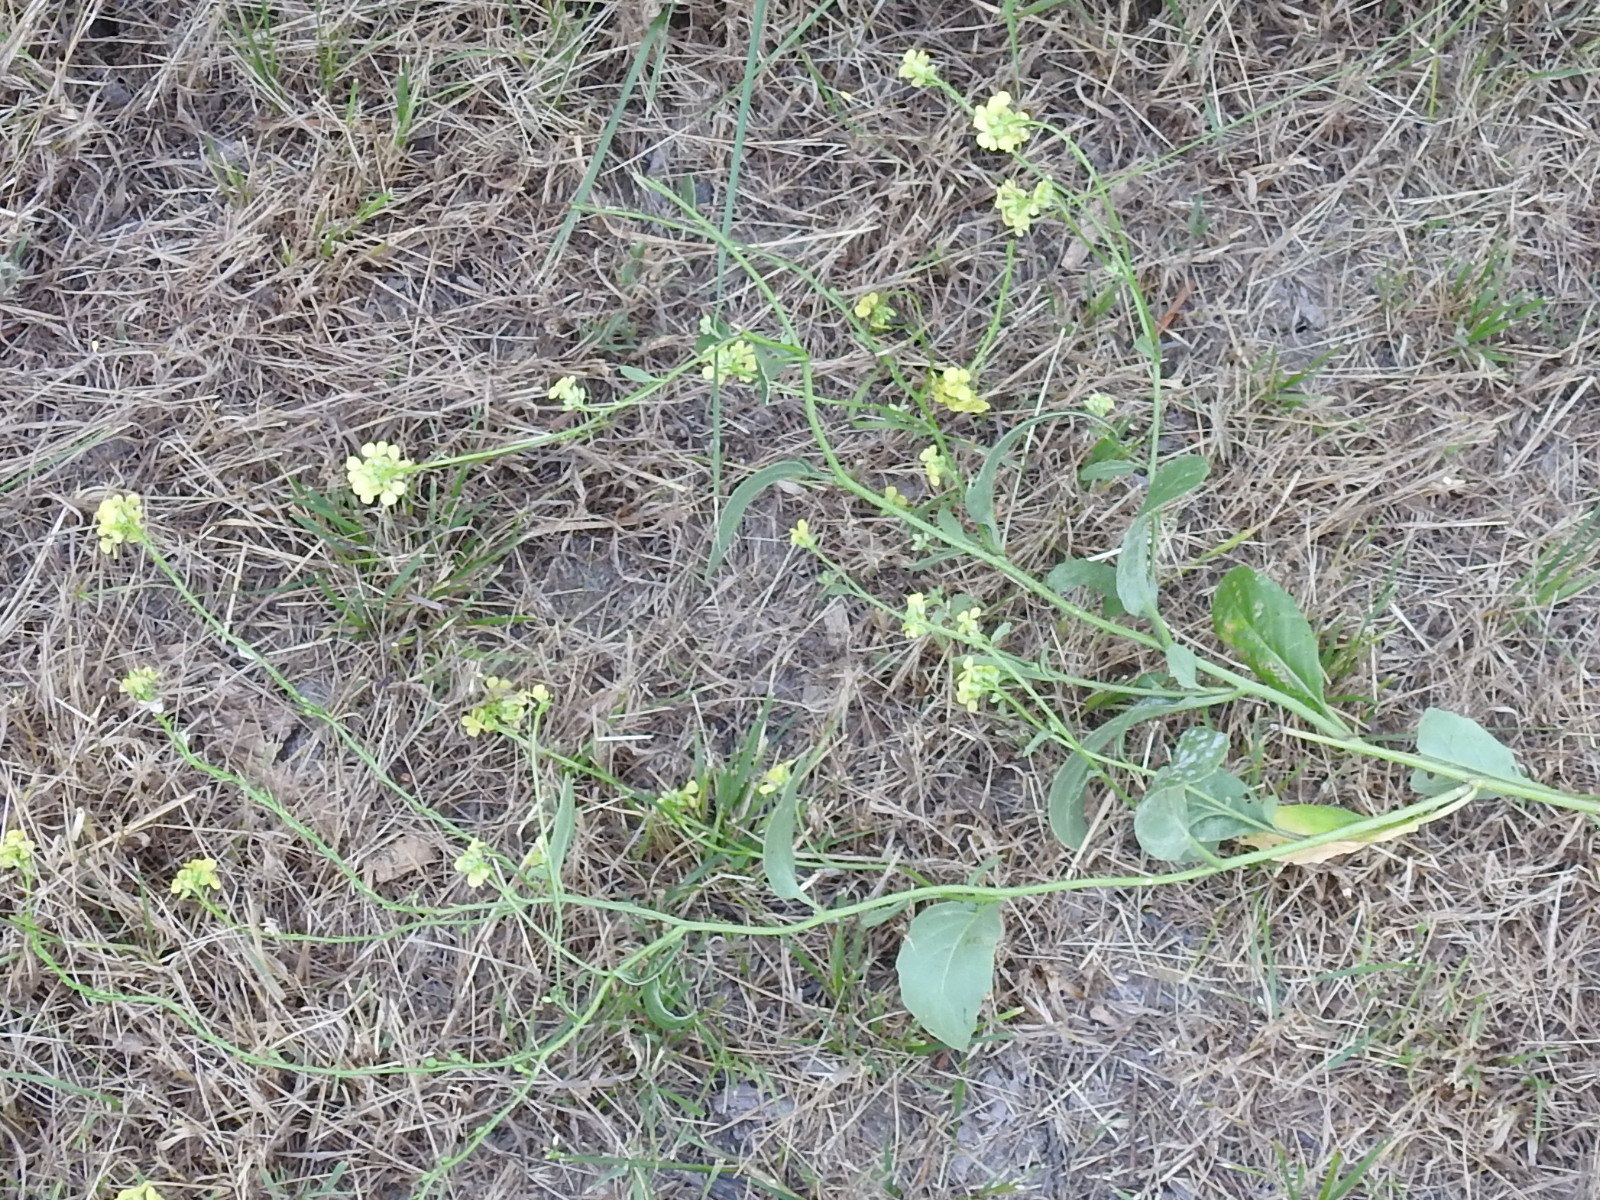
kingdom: Plantae
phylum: Tracheophyta
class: Magnoliopsida
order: Brassicales
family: Brassicaceae
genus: Rapistrum
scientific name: Rapistrum rugosum
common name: Annual bastardcabbage
